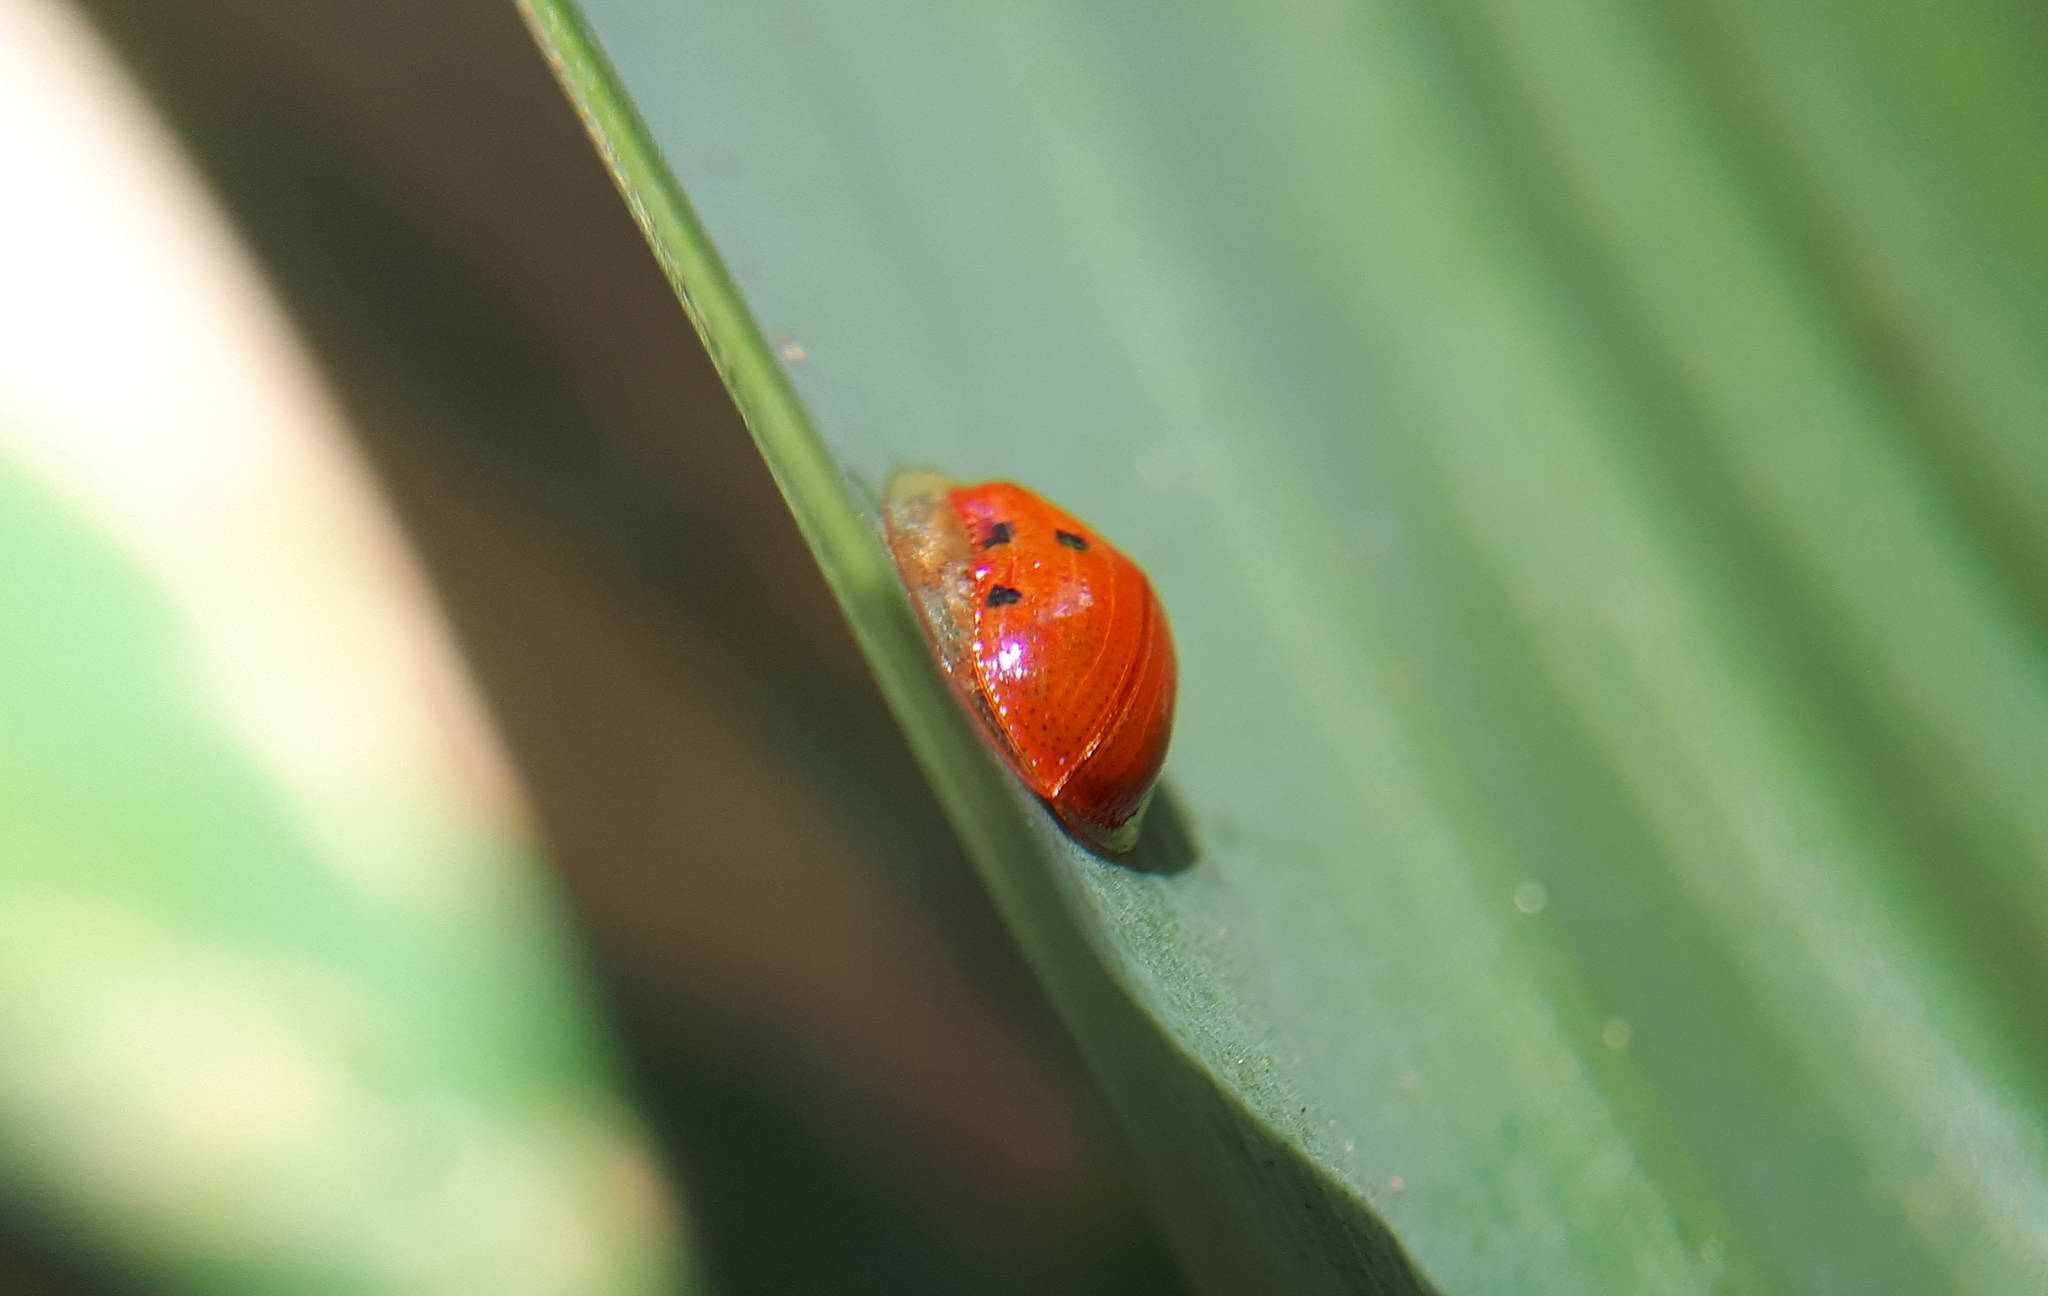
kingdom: Animalia
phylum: Arthropoda
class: Insecta
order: Coleoptera
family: Chrysomelidae
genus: Charidotella
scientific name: Charidotella sexpunctata
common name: Golden tortoise beetle
